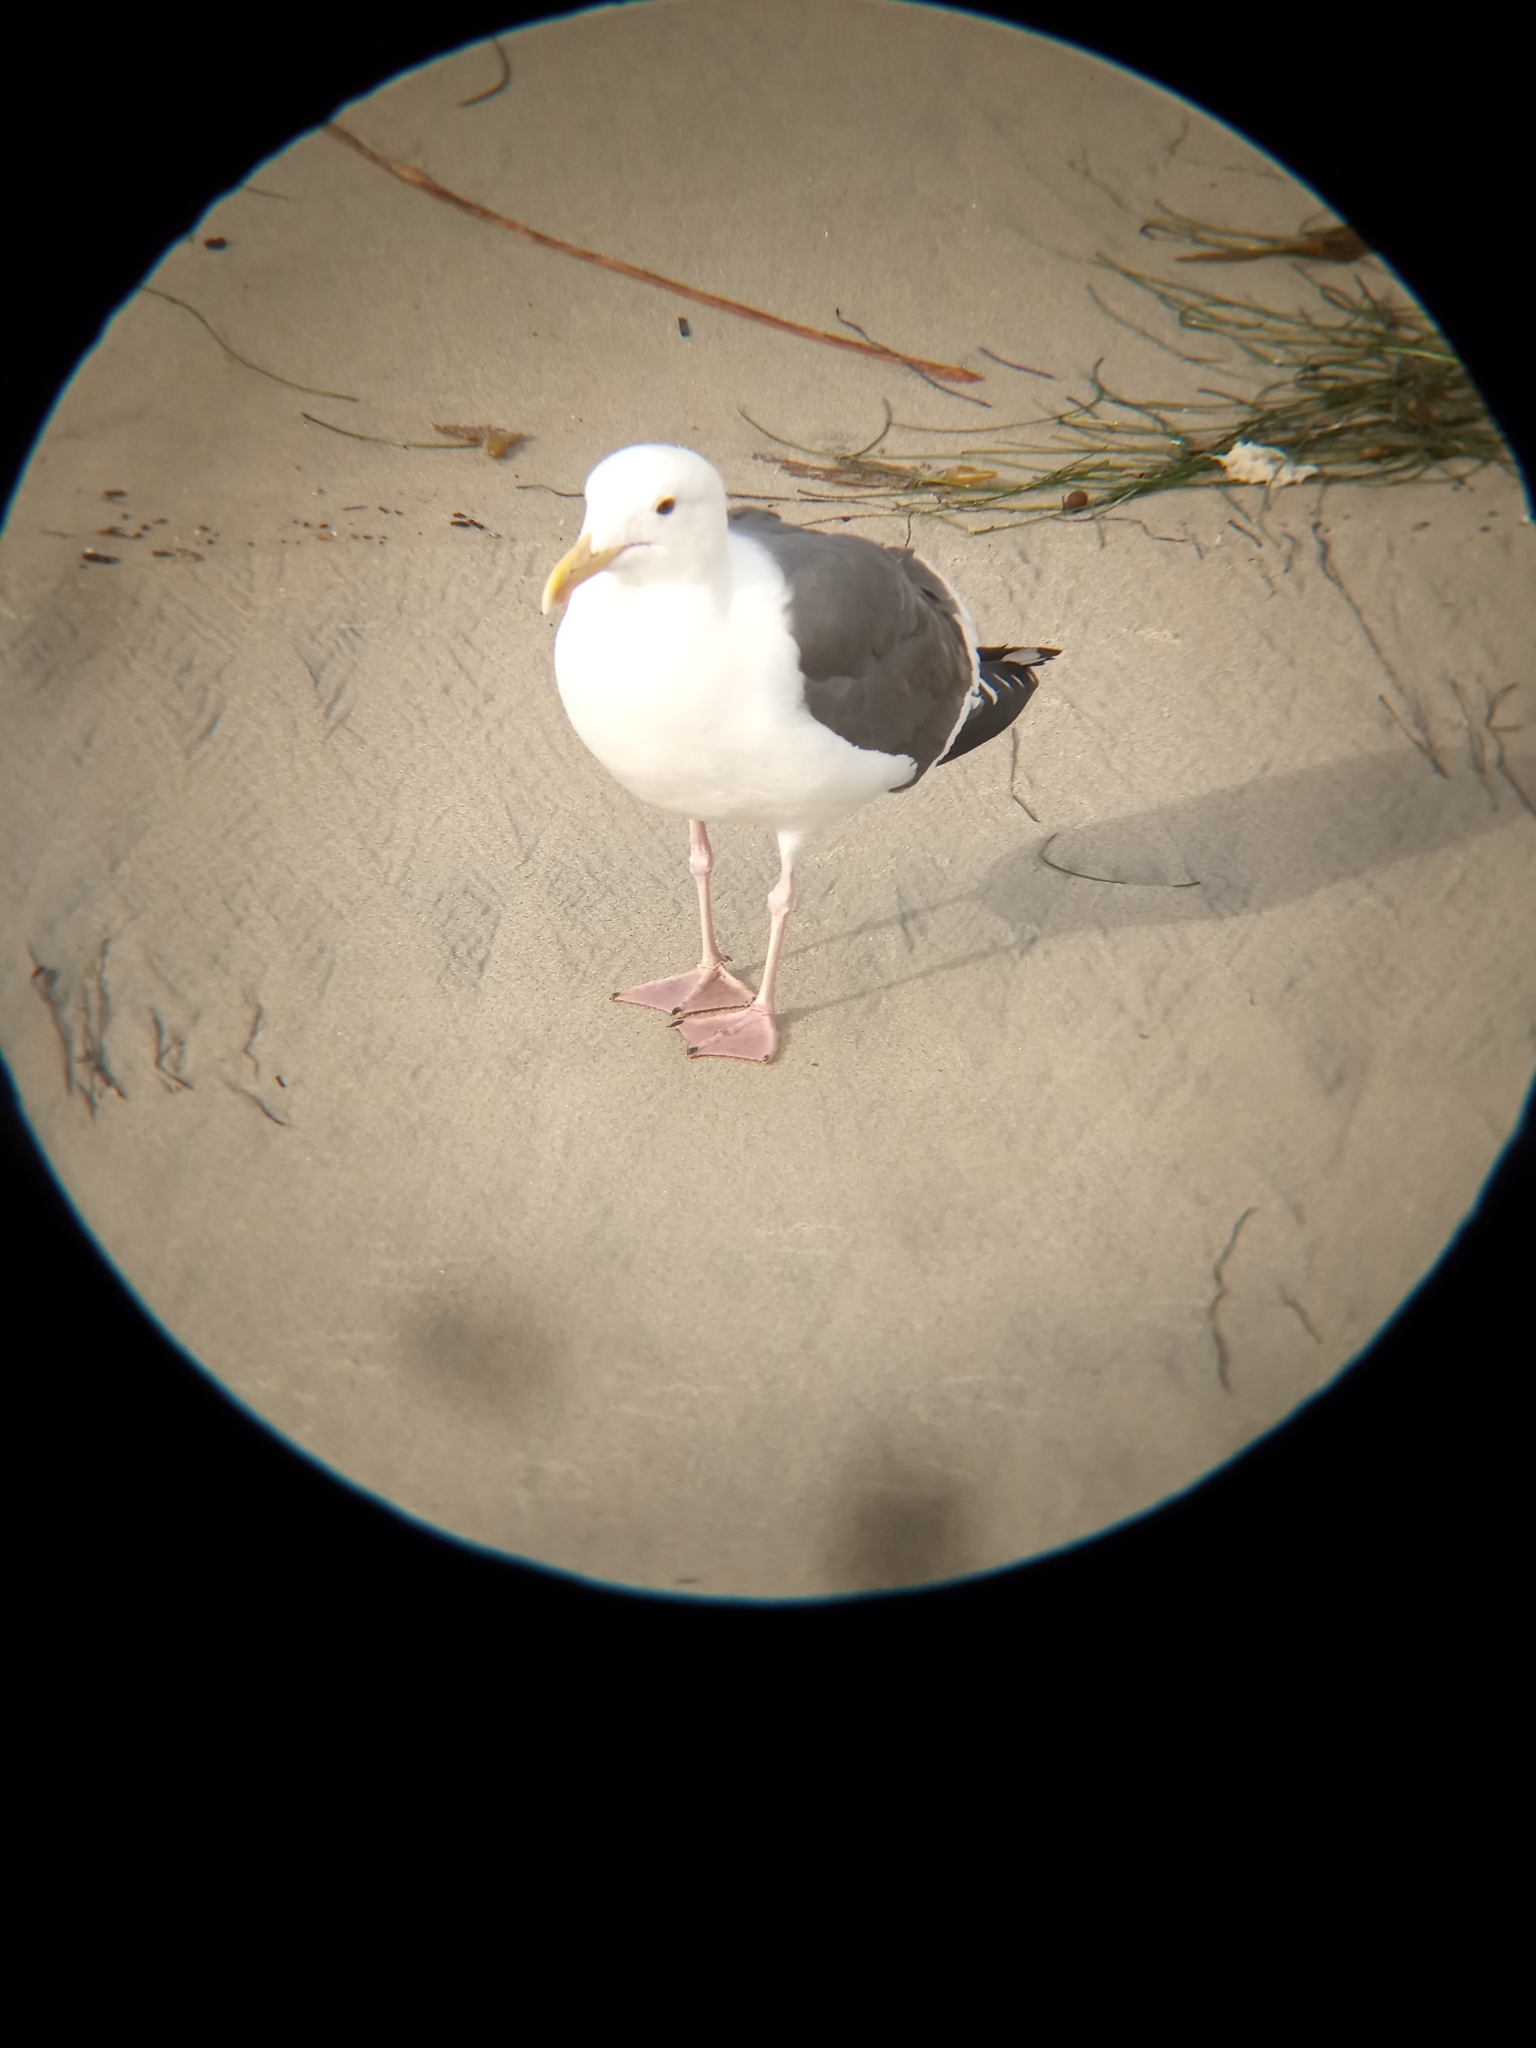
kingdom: Animalia
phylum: Chordata
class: Aves
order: Charadriiformes
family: Laridae
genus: Larus
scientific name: Larus occidentalis
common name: Western gull
